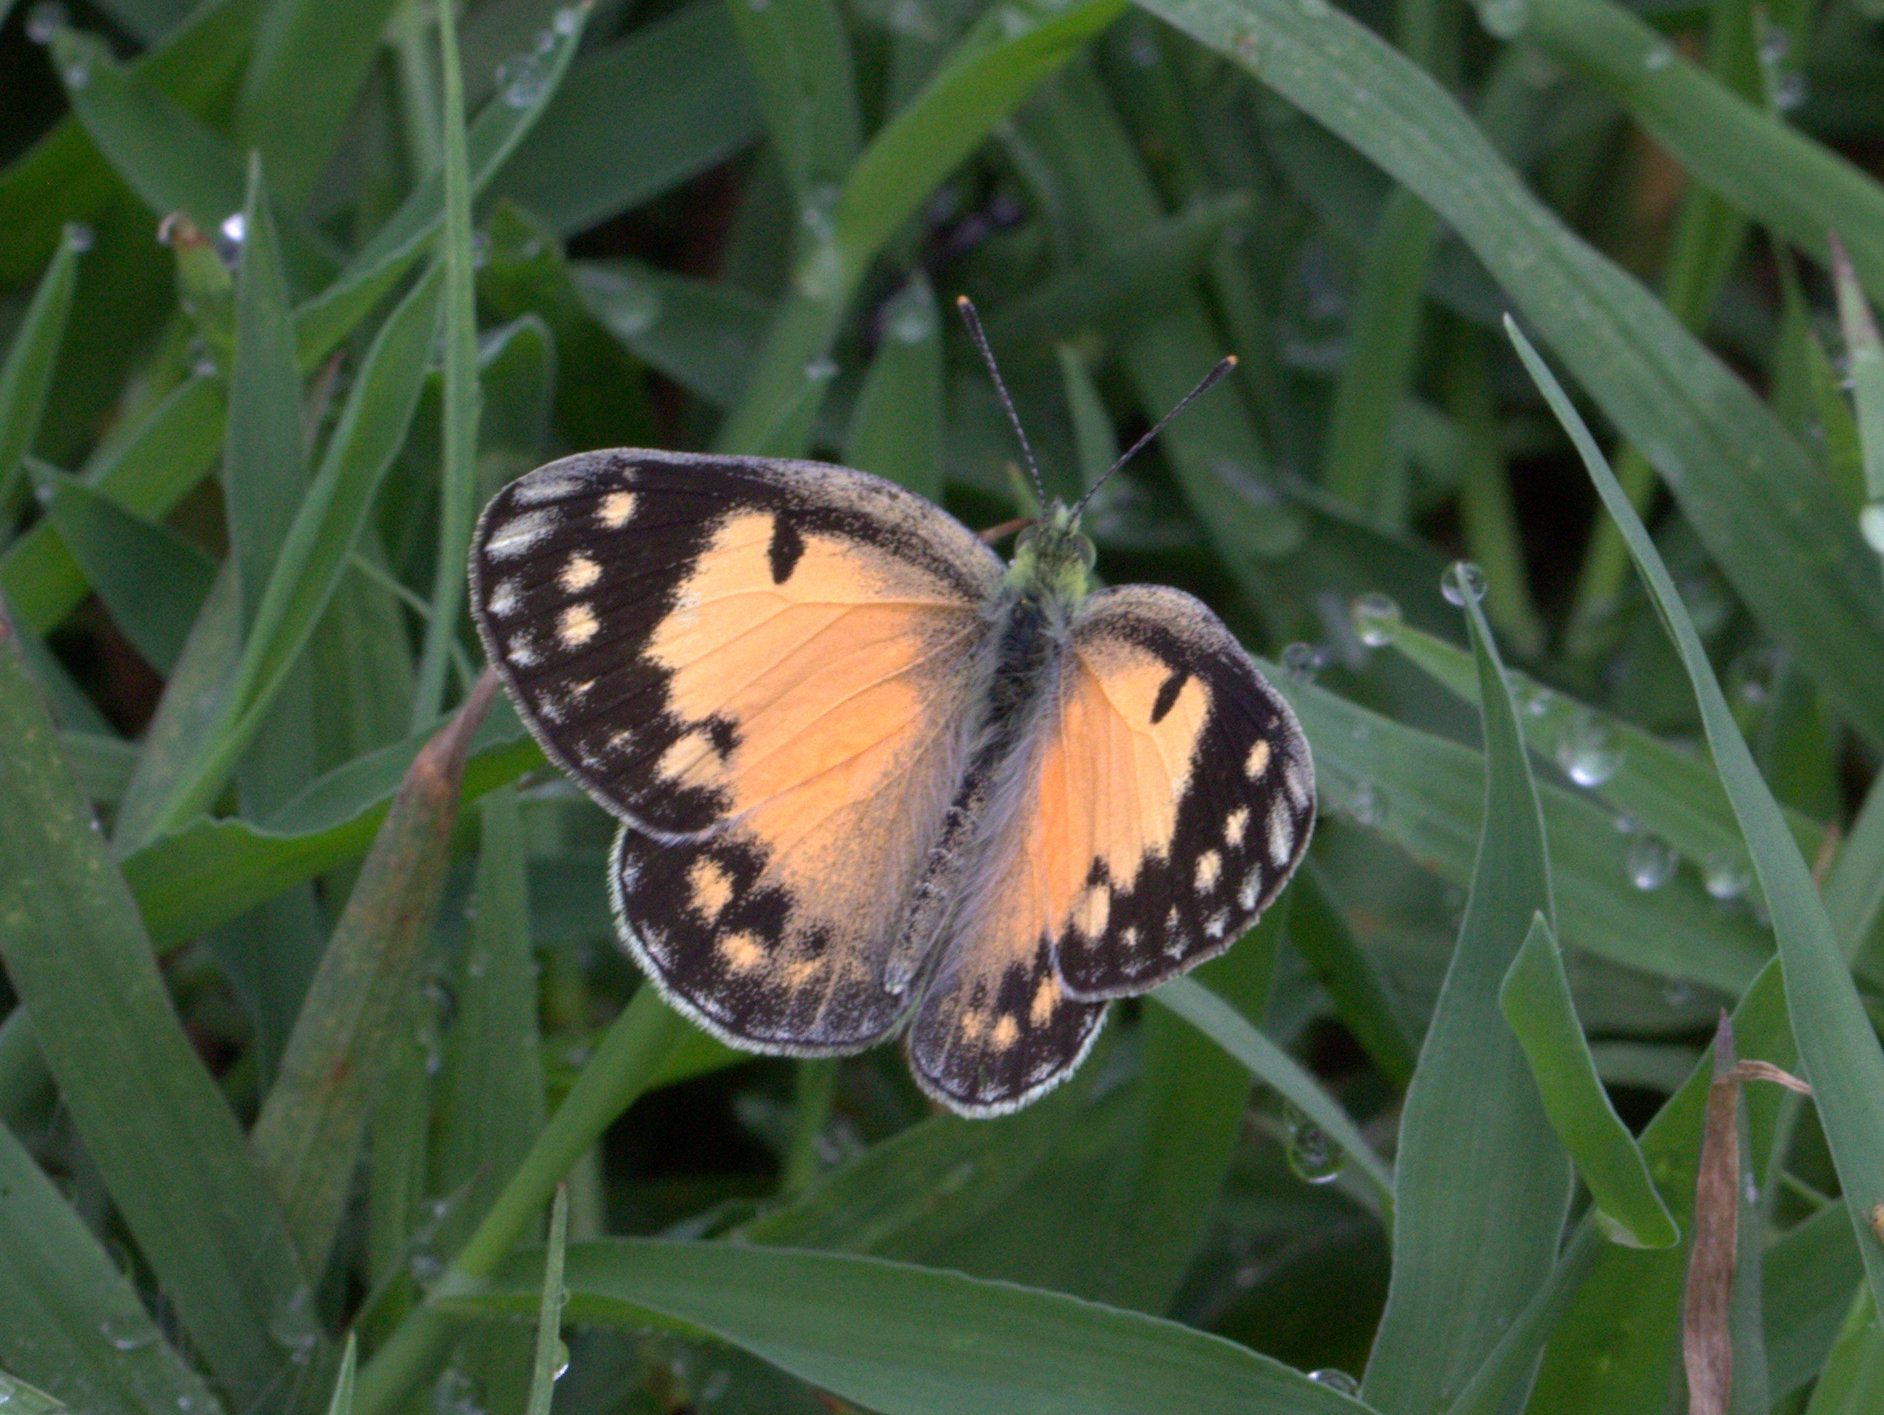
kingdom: Animalia
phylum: Arthropoda
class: Insecta
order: Lepidoptera
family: Pieridae
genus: Colotis
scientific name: Colotis amata
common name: Small salmon arab
